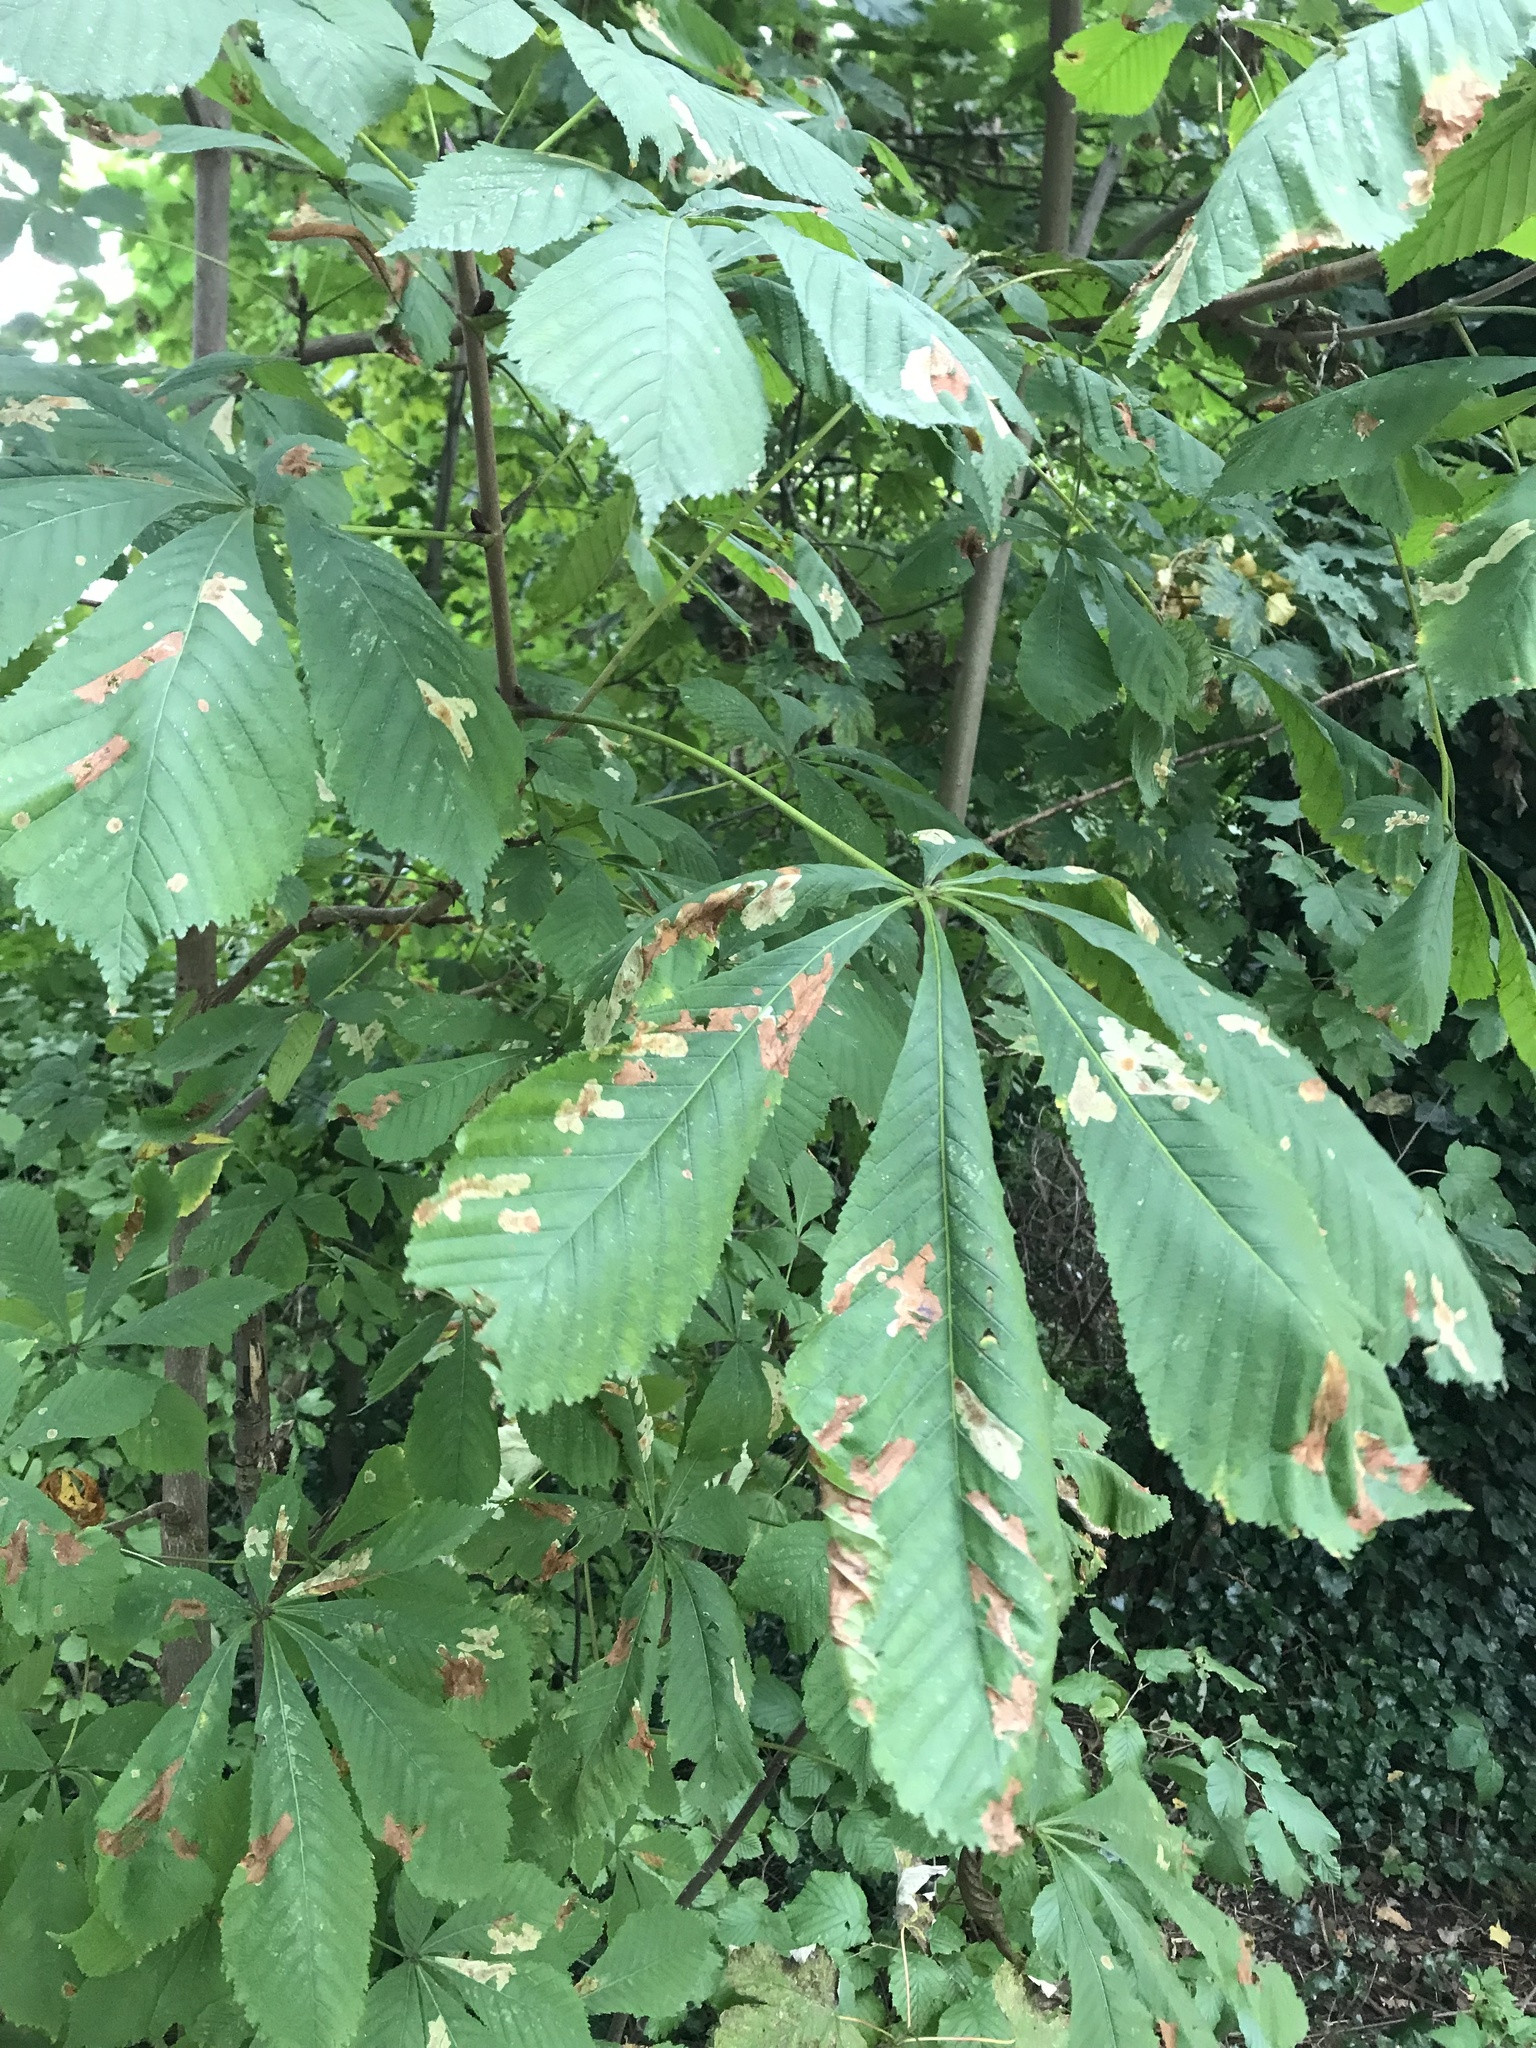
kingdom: Plantae
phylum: Tracheophyta
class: Magnoliopsida
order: Sapindales
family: Sapindaceae
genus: Aesculus
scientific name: Aesculus hippocastanum
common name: Horse-chestnut
